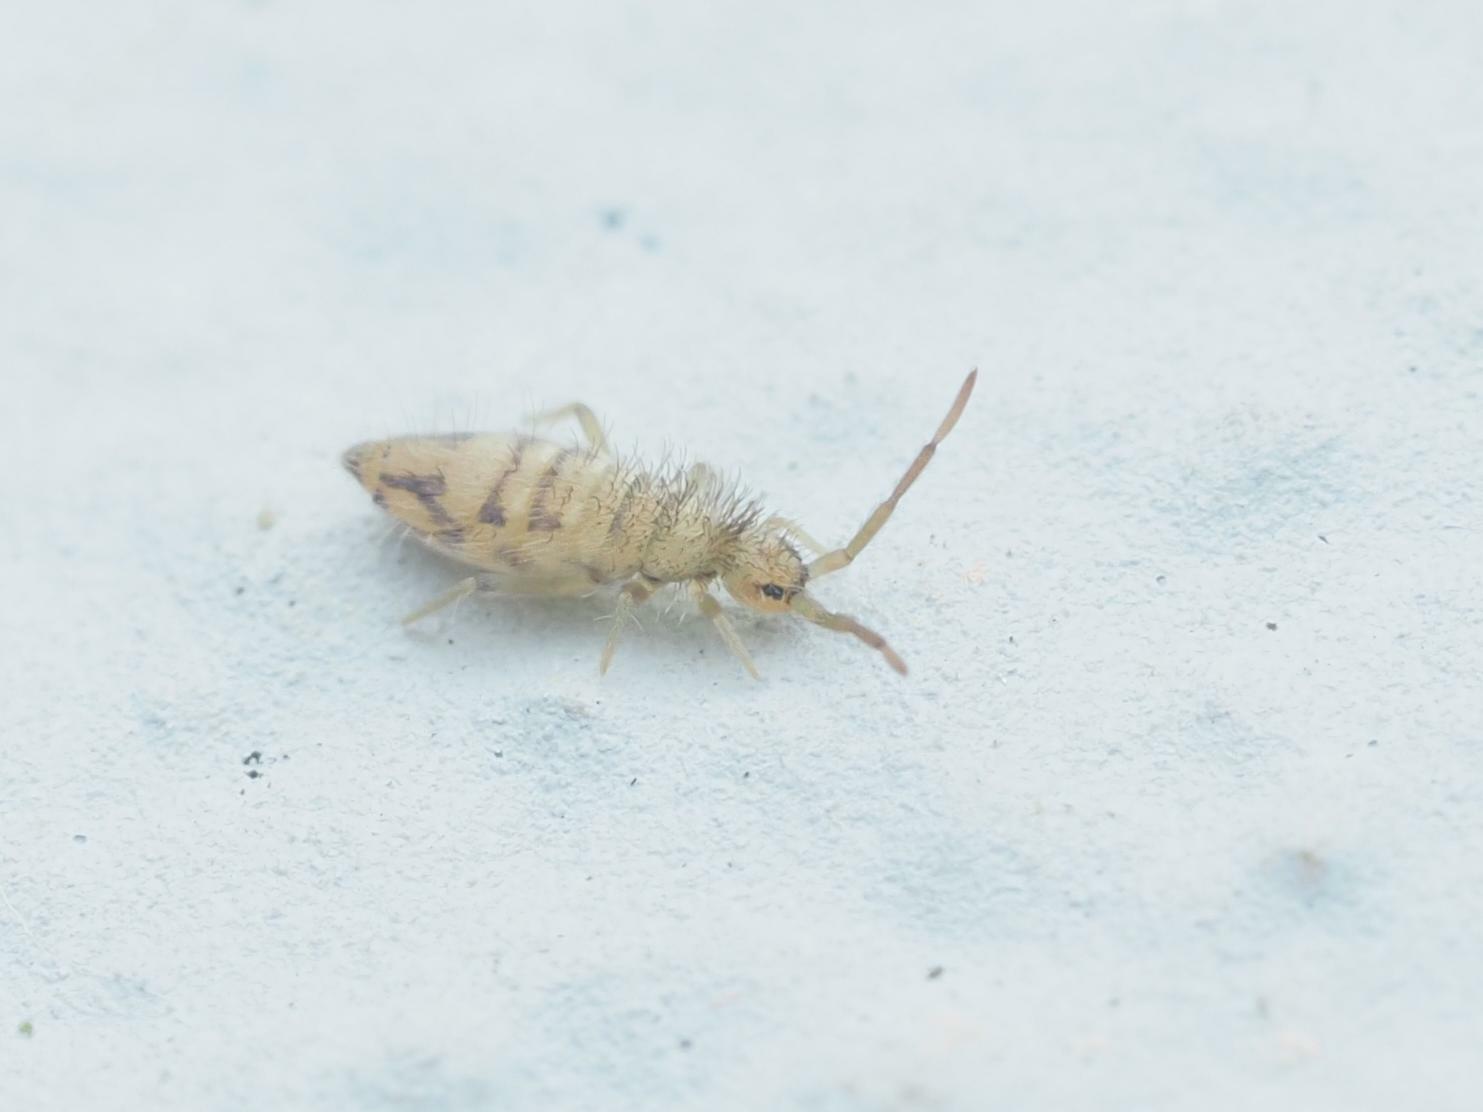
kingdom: Animalia
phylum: Arthropoda
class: Collembola
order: Entomobryomorpha
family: Entomobryidae
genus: Entomobrya
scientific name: Entomobrya nivalis
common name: Cosmopolitan springtail
